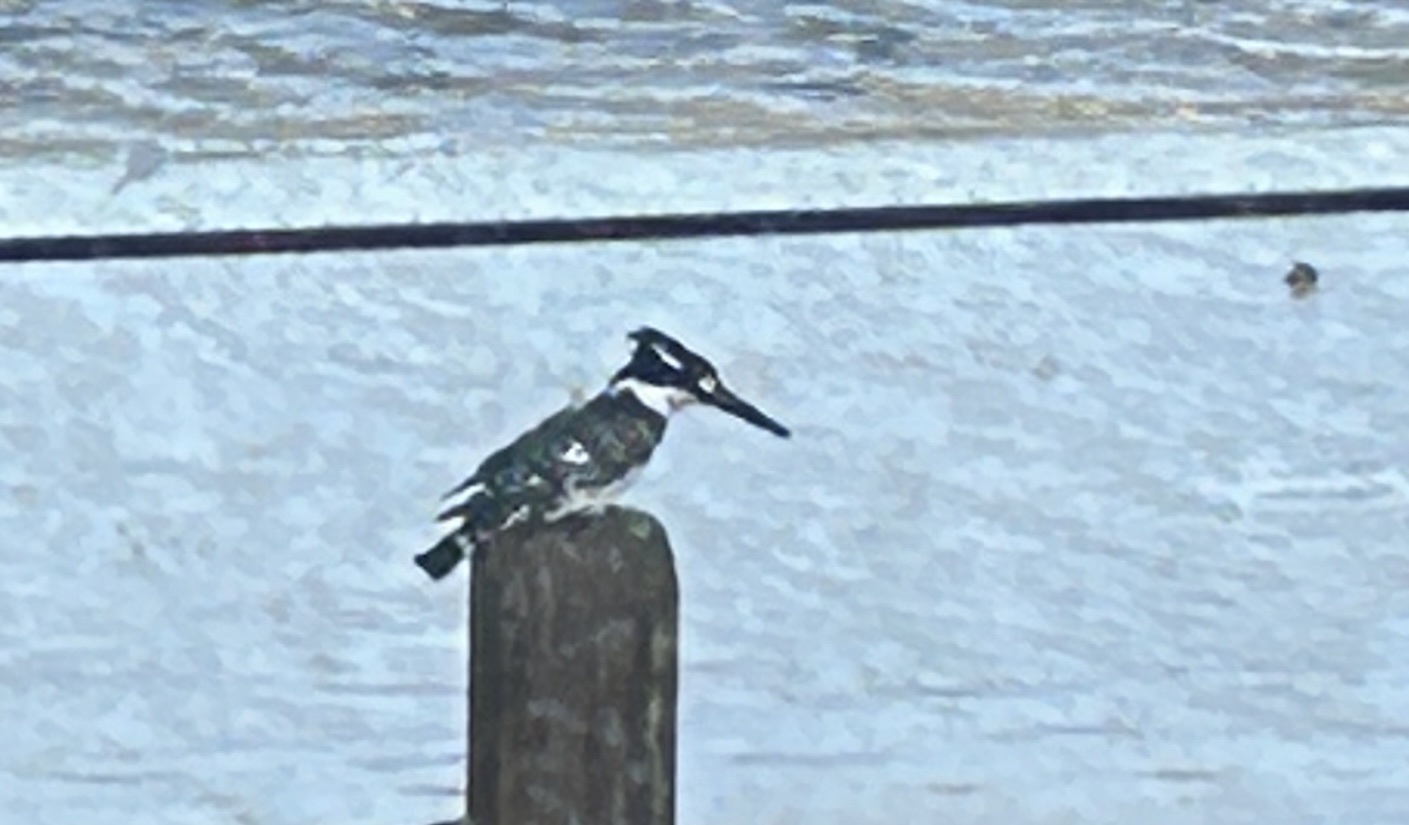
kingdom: Animalia
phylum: Chordata
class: Aves
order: Coraciiformes
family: Alcedinidae
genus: Ceryle
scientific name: Ceryle rudis
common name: Pied kingfisher
